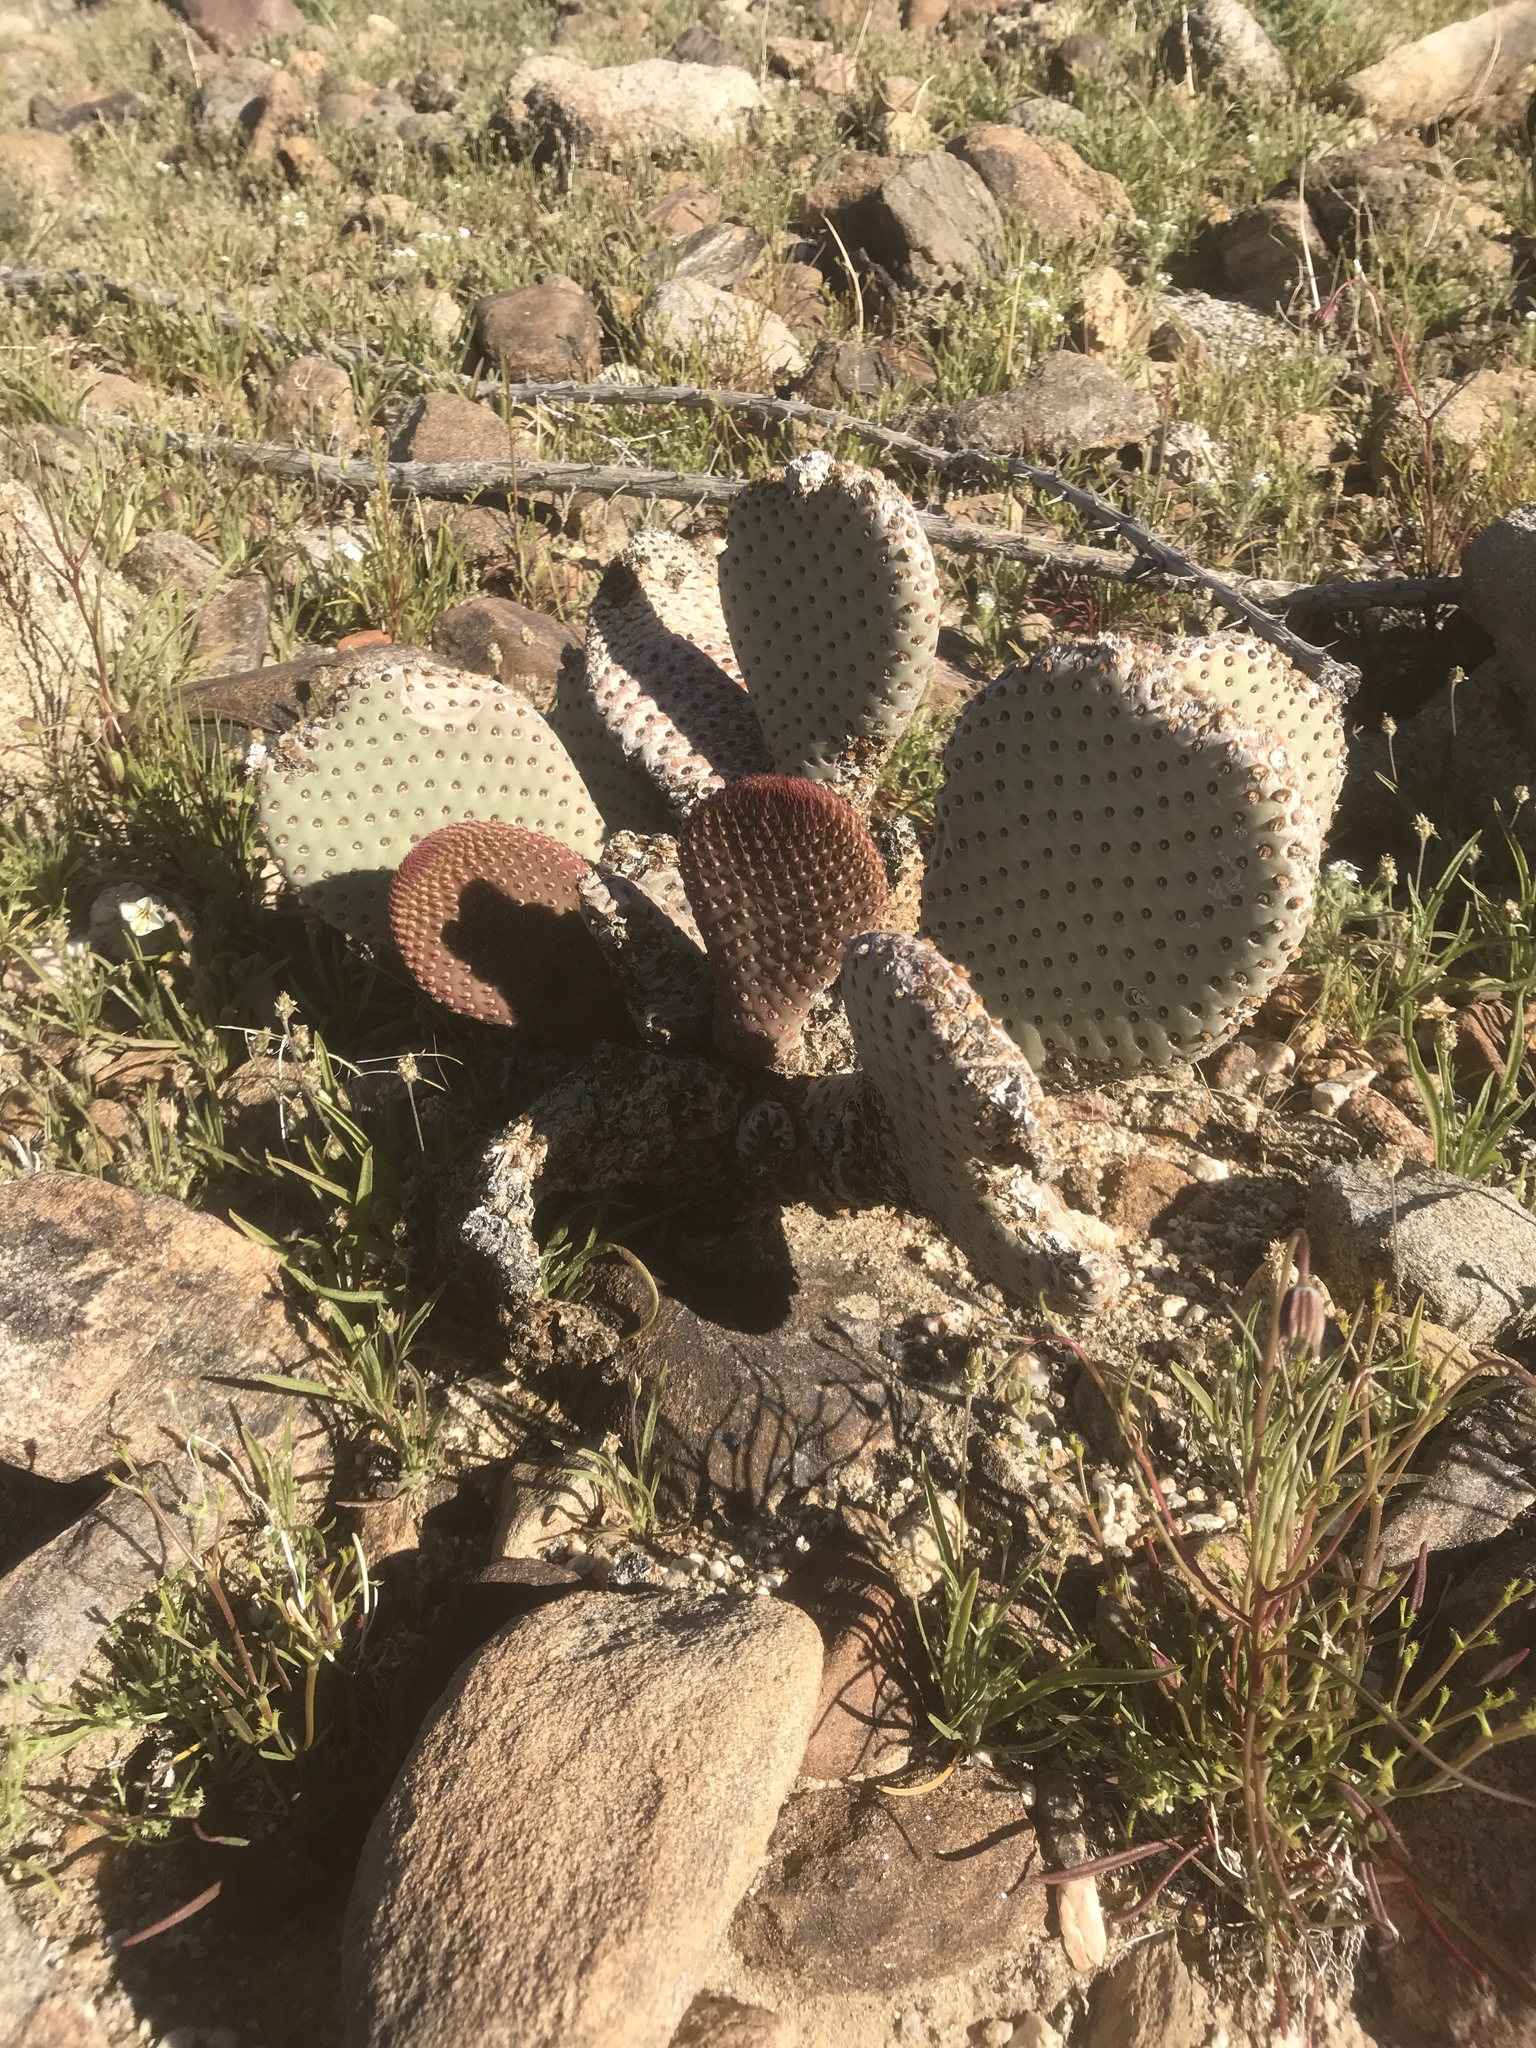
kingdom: Plantae
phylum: Tracheophyta
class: Magnoliopsida
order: Caryophyllales
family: Cactaceae
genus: Opuntia
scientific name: Opuntia basilaris
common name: Beavertail prickly-pear
